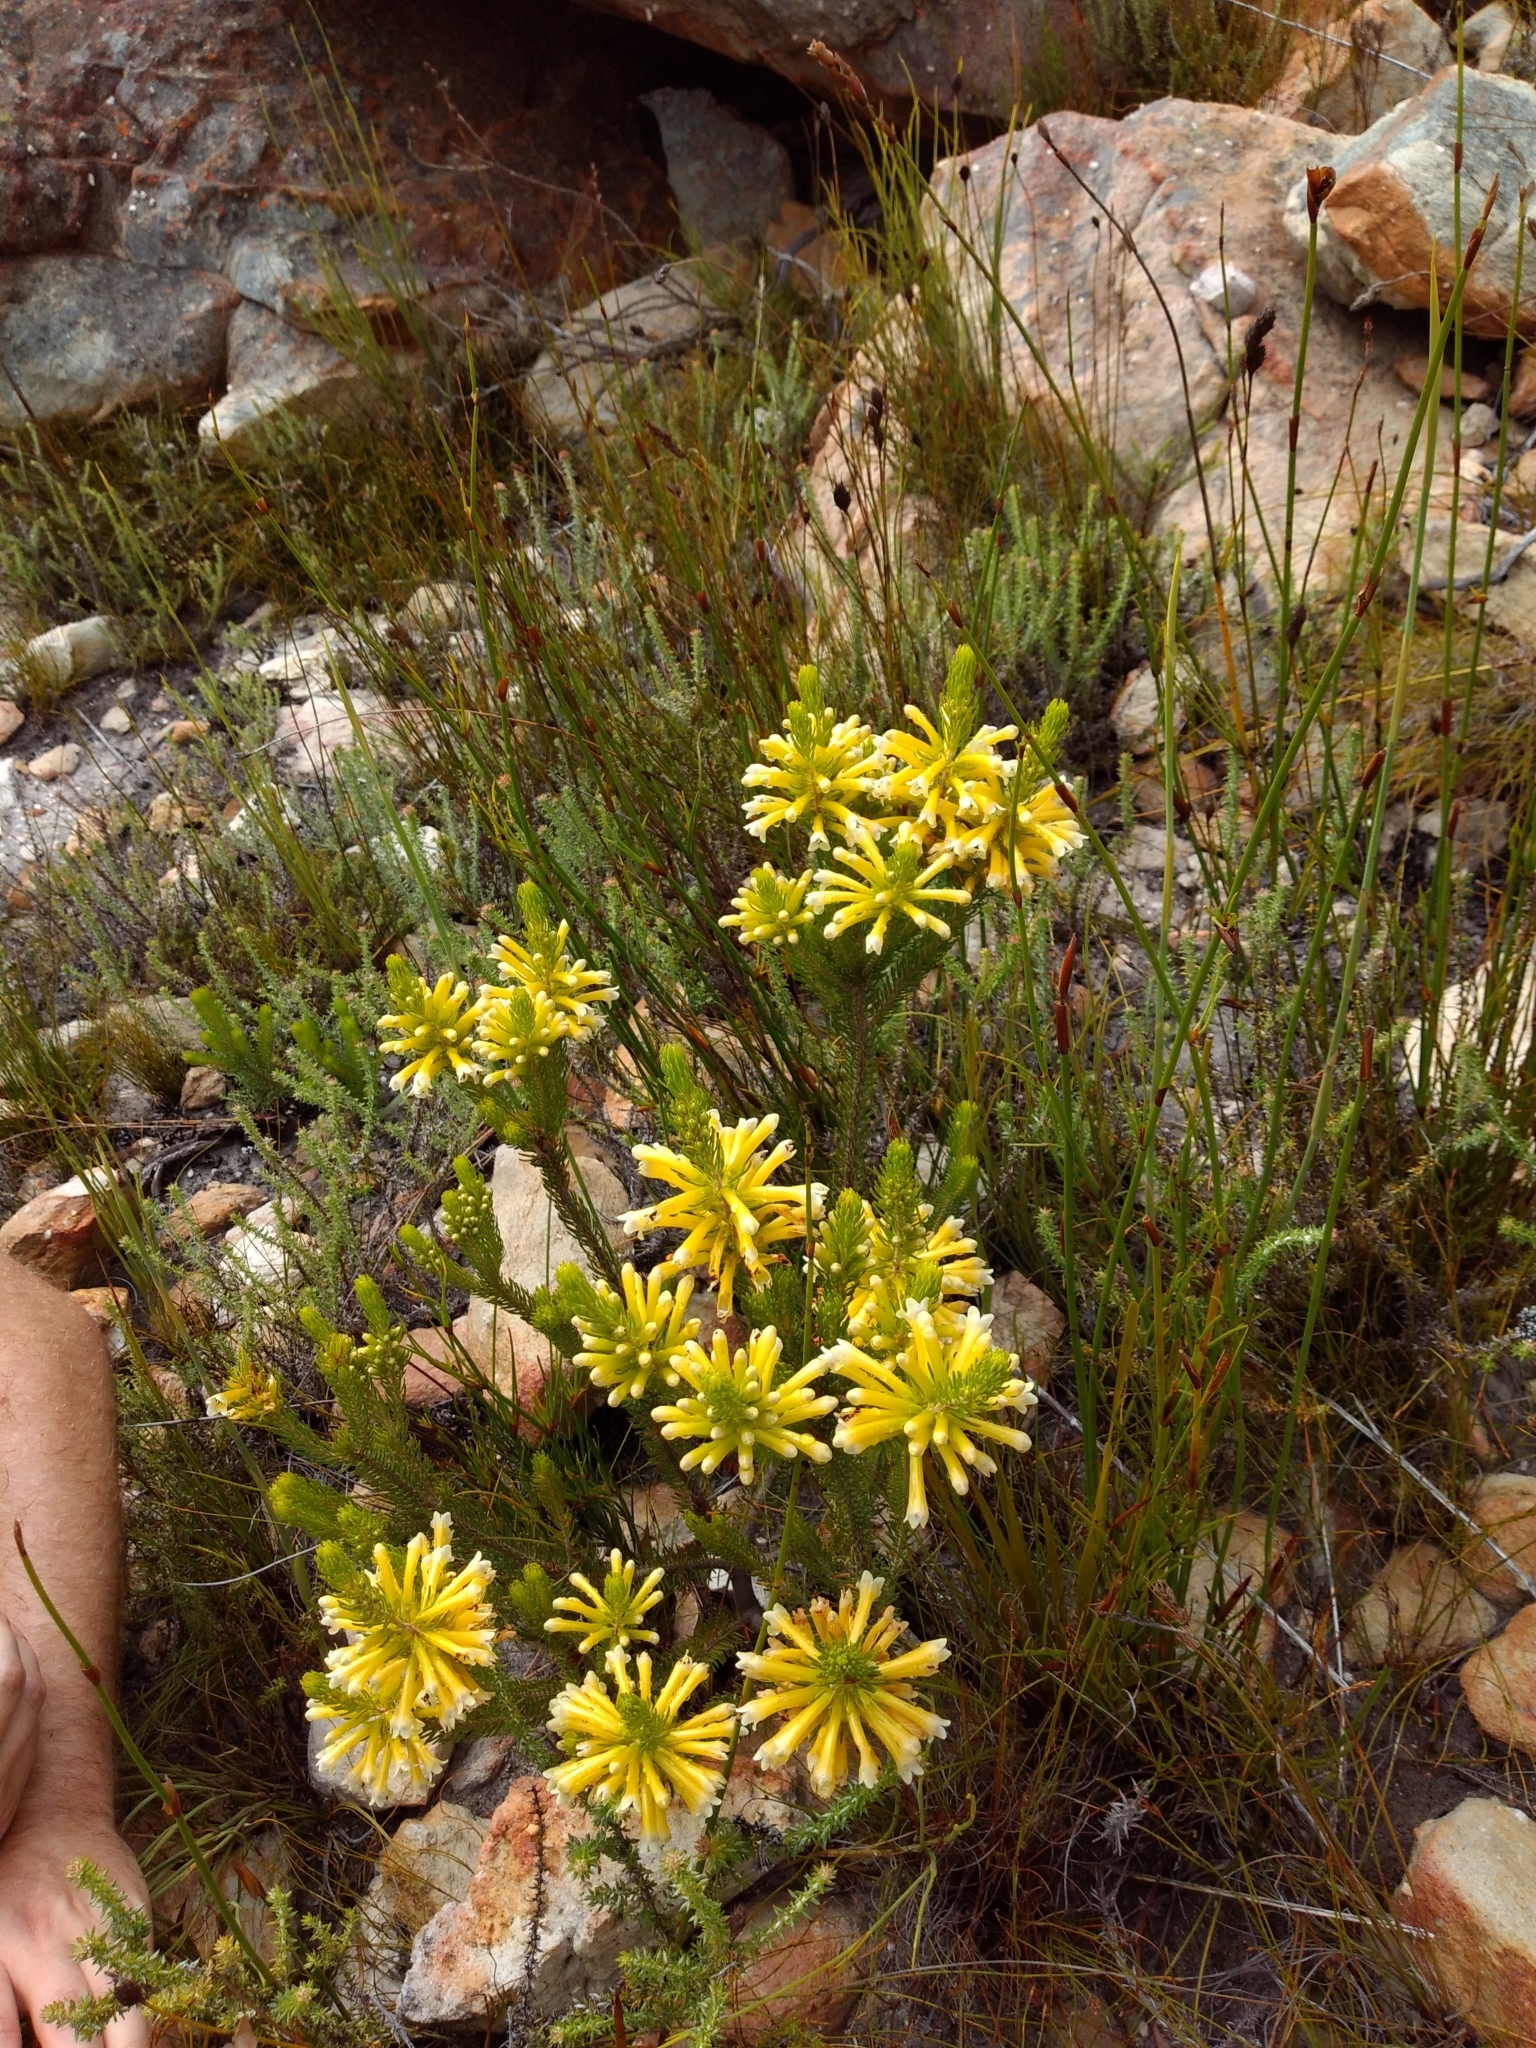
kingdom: Plantae
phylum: Tracheophyta
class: Magnoliopsida
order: Ericales
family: Ericaceae
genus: Erica
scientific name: Erica pinea
